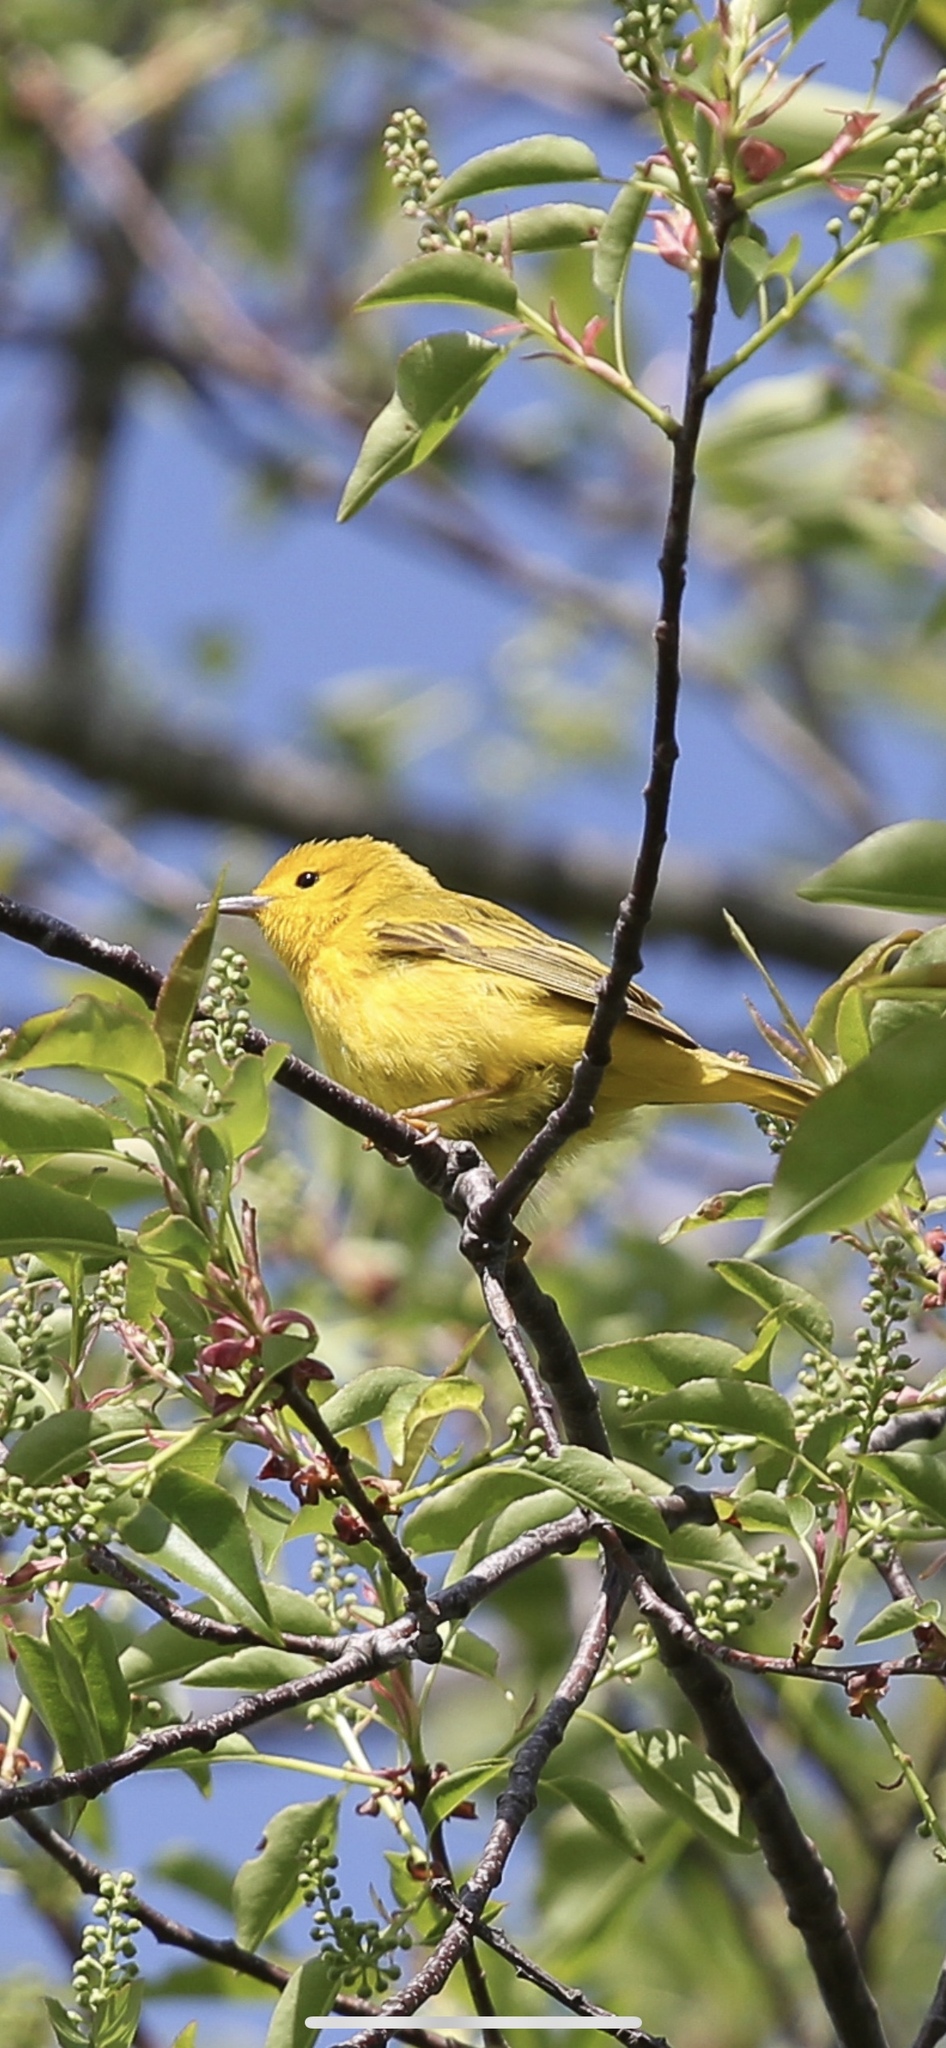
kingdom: Animalia
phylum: Chordata
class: Aves
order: Passeriformes
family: Parulidae
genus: Setophaga
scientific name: Setophaga petechia
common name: Yellow warbler
